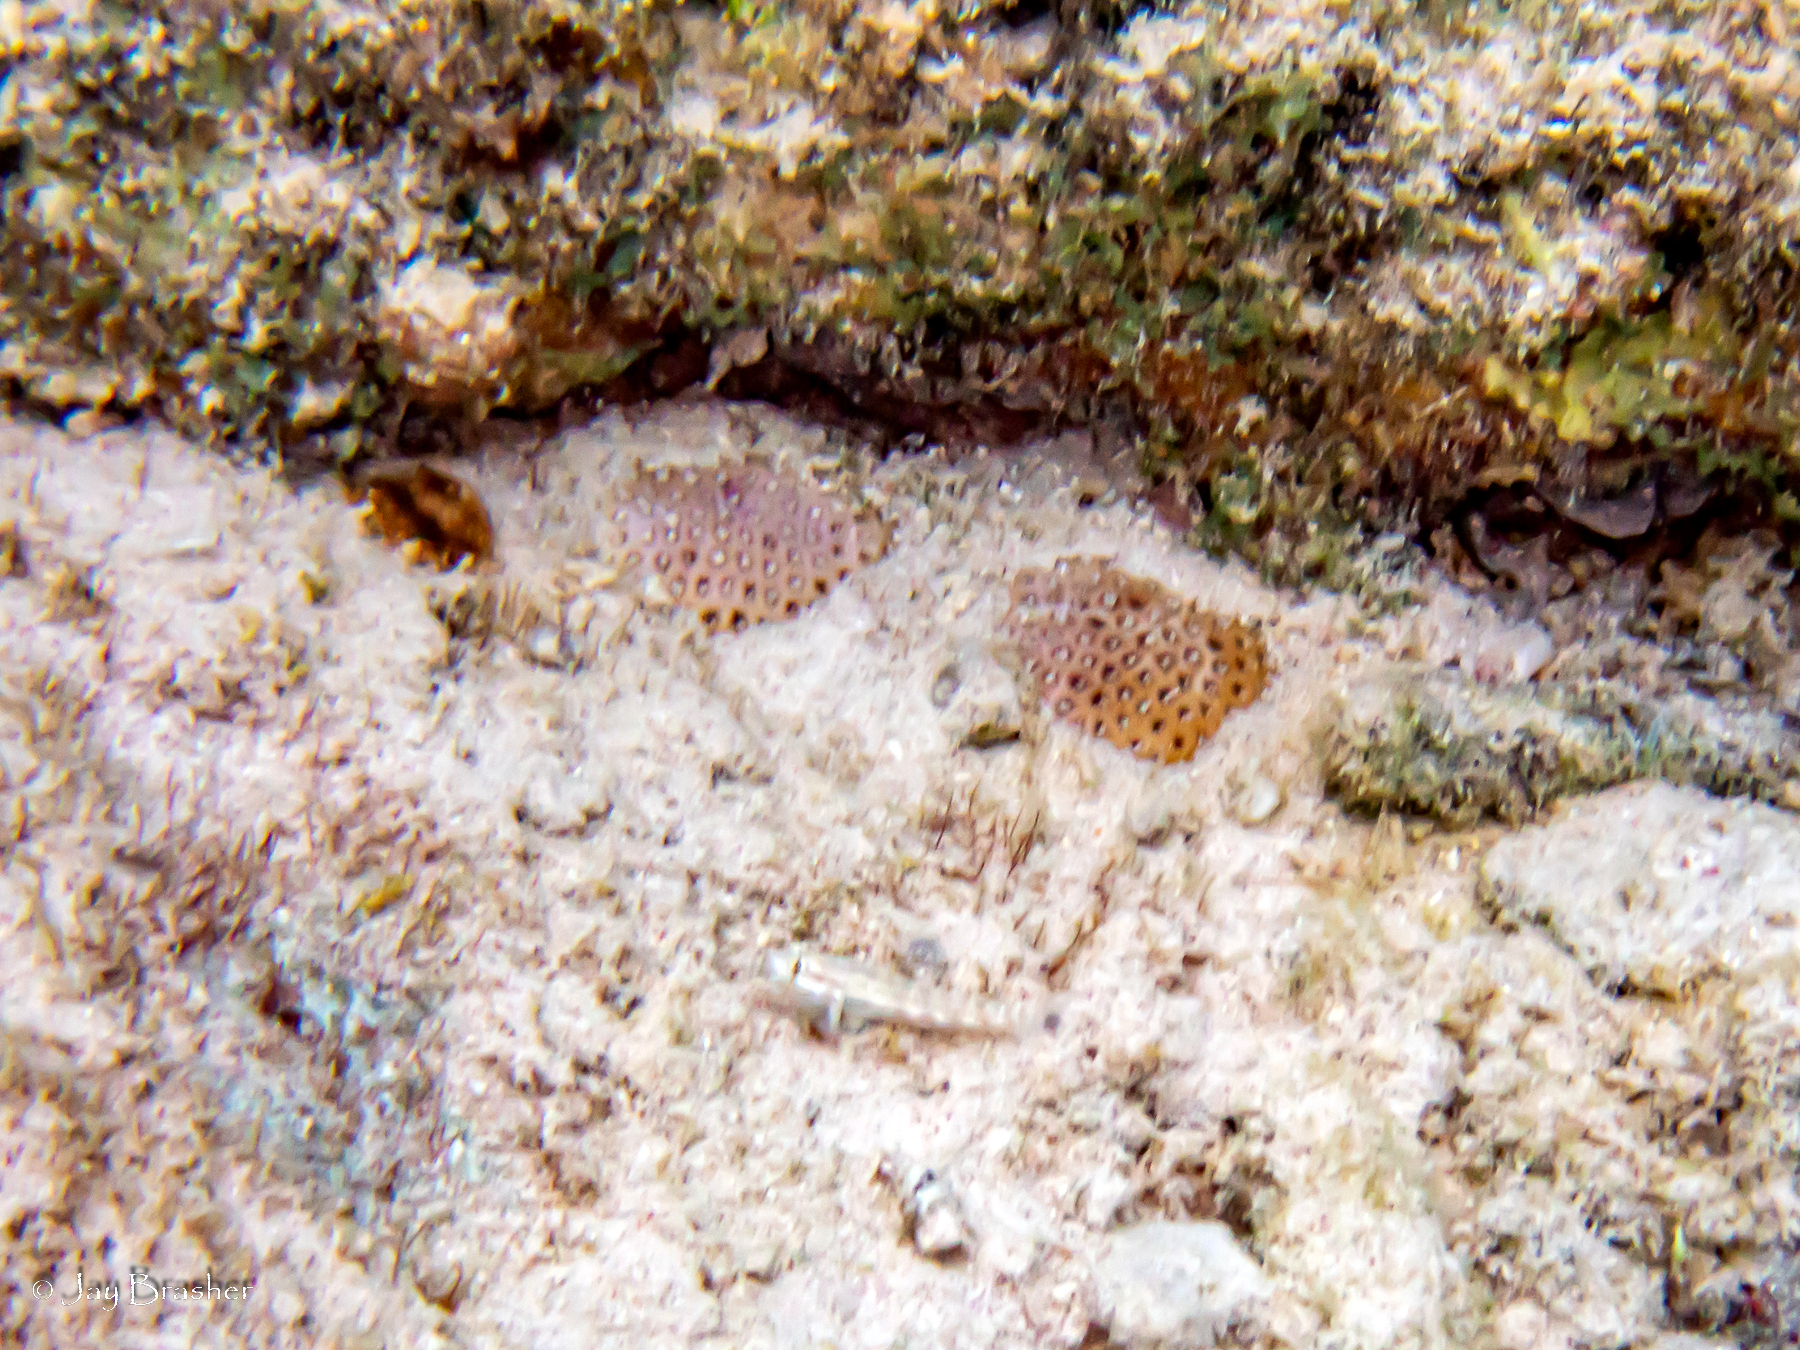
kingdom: Animalia
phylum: Chordata
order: Perciformes
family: Gobiidae
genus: Gnatholepis
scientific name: Gnatholepis thompsoni
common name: Goldspot goby
